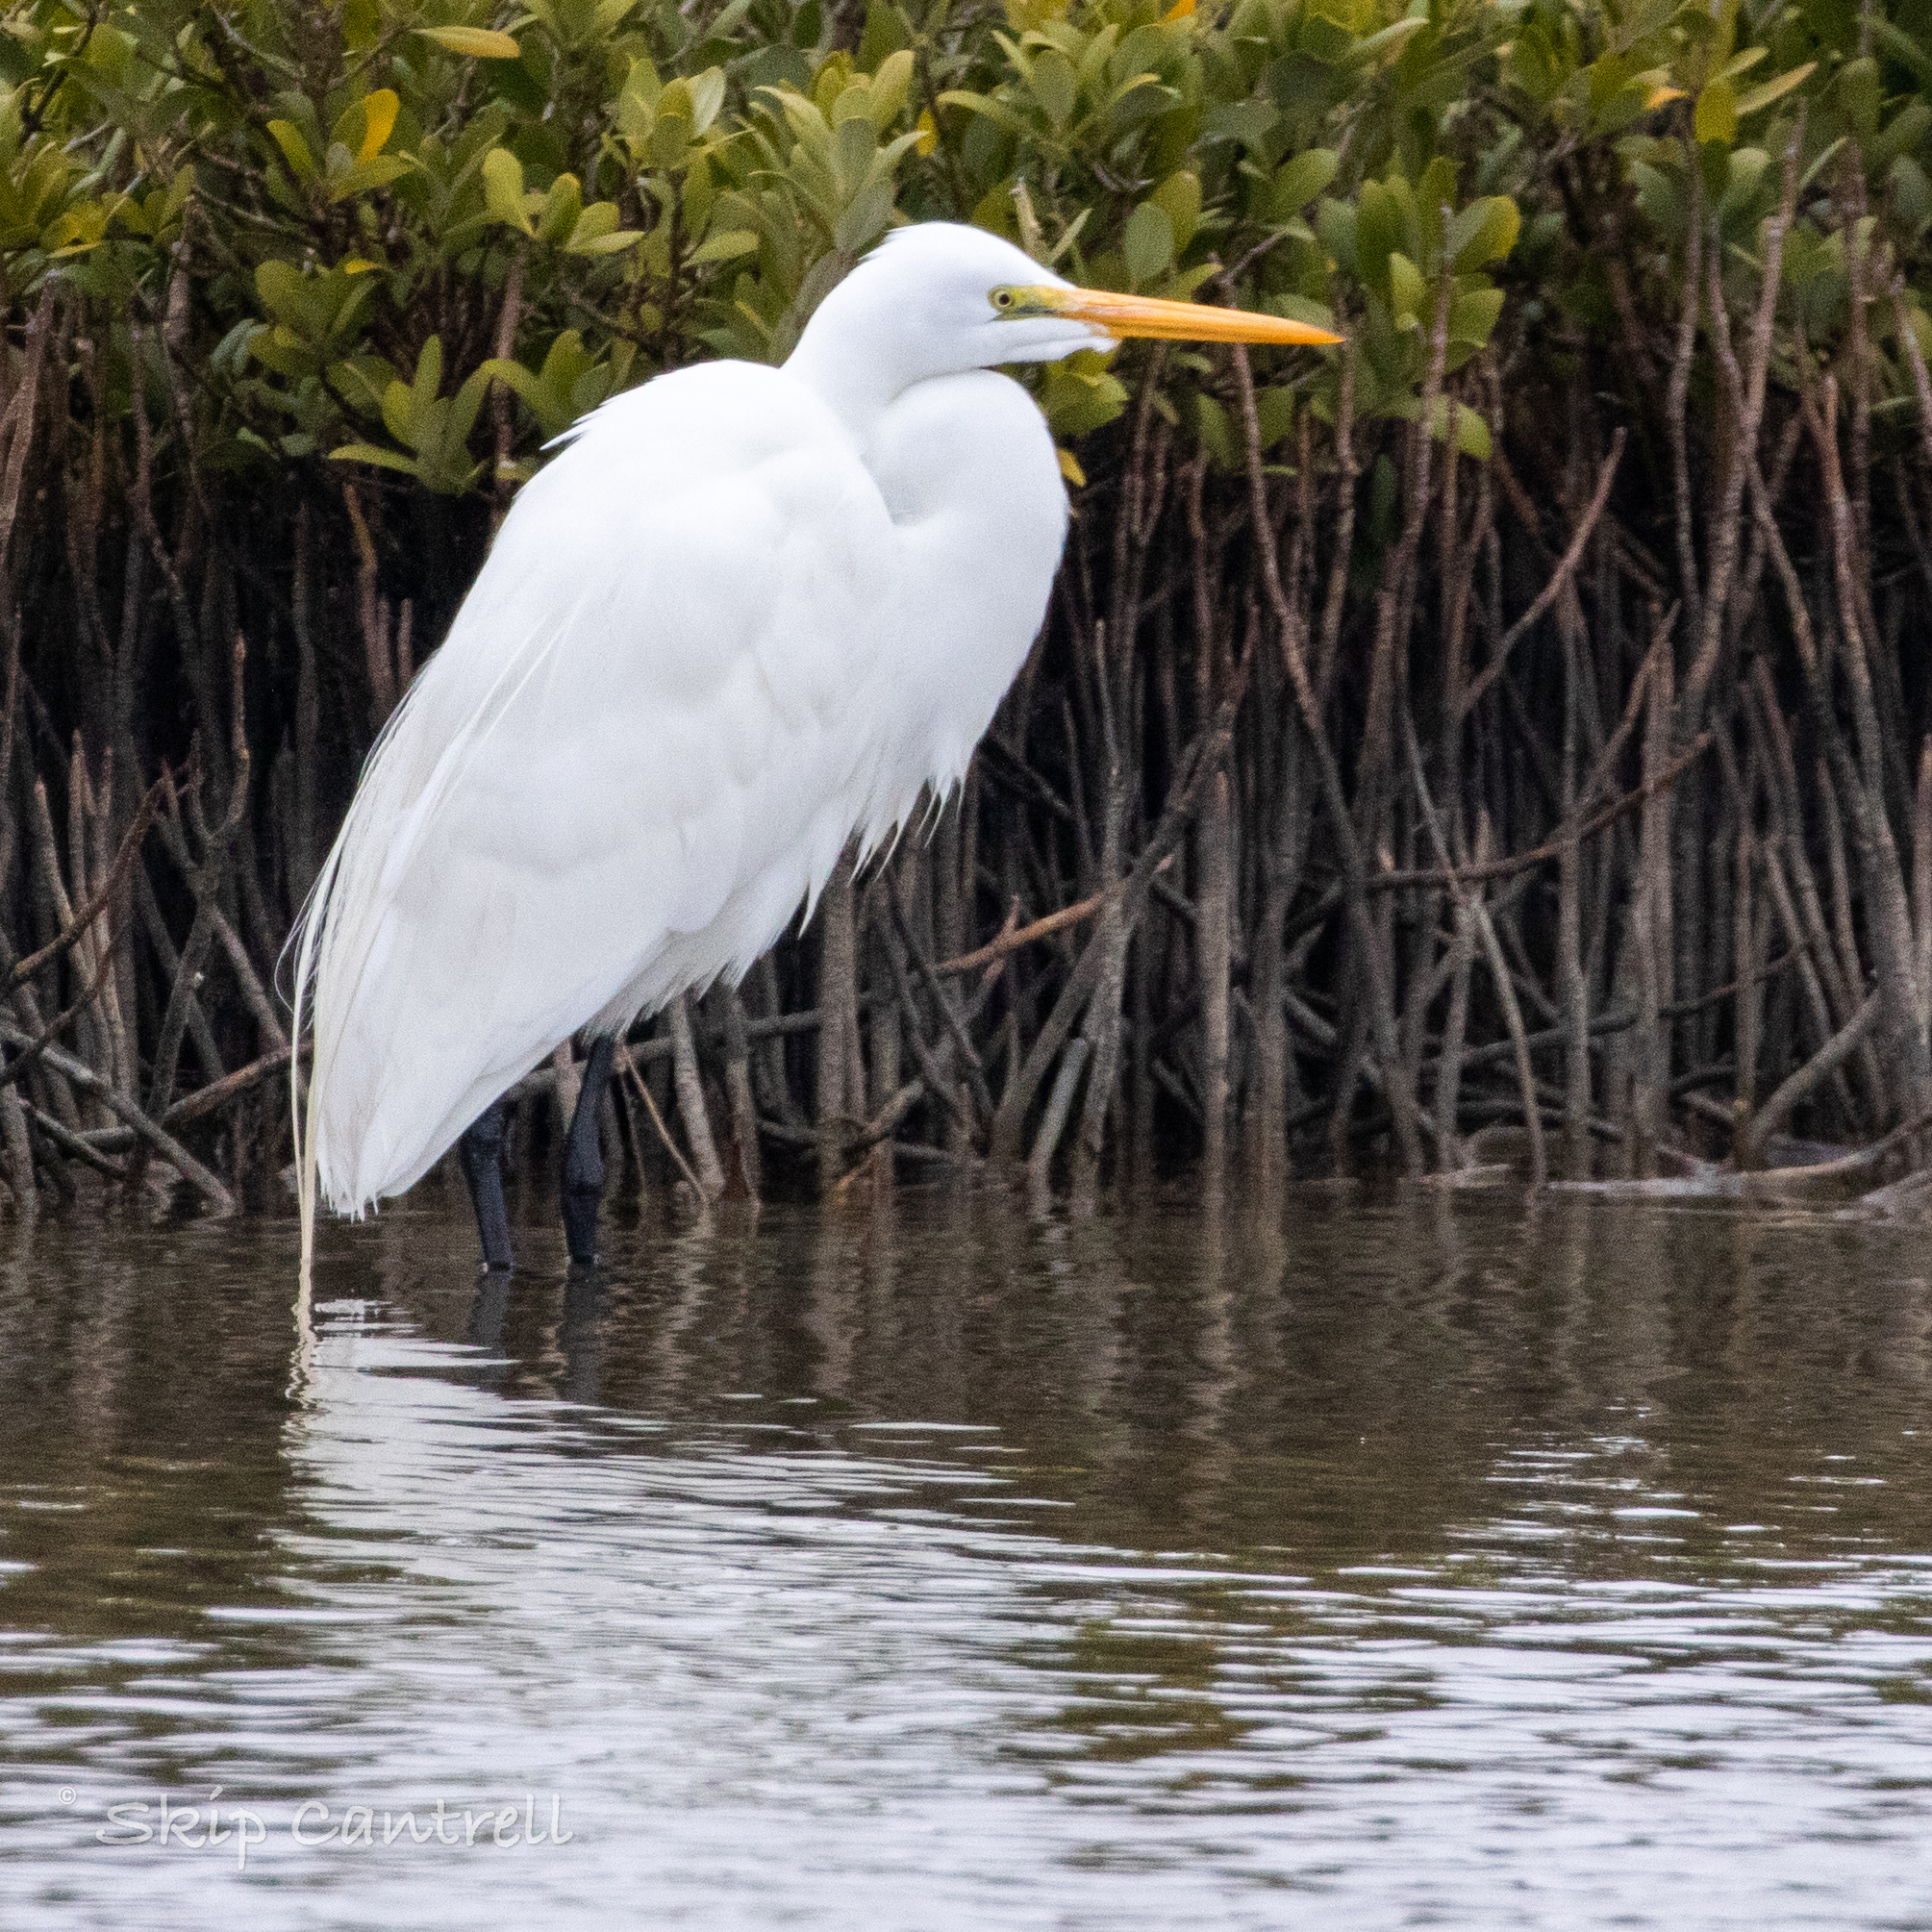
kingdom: Animalia
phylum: Chordata
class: Aves
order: Pelecaniformes
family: Ardeidae
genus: Ardea
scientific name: Ardea alba
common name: Great egret
